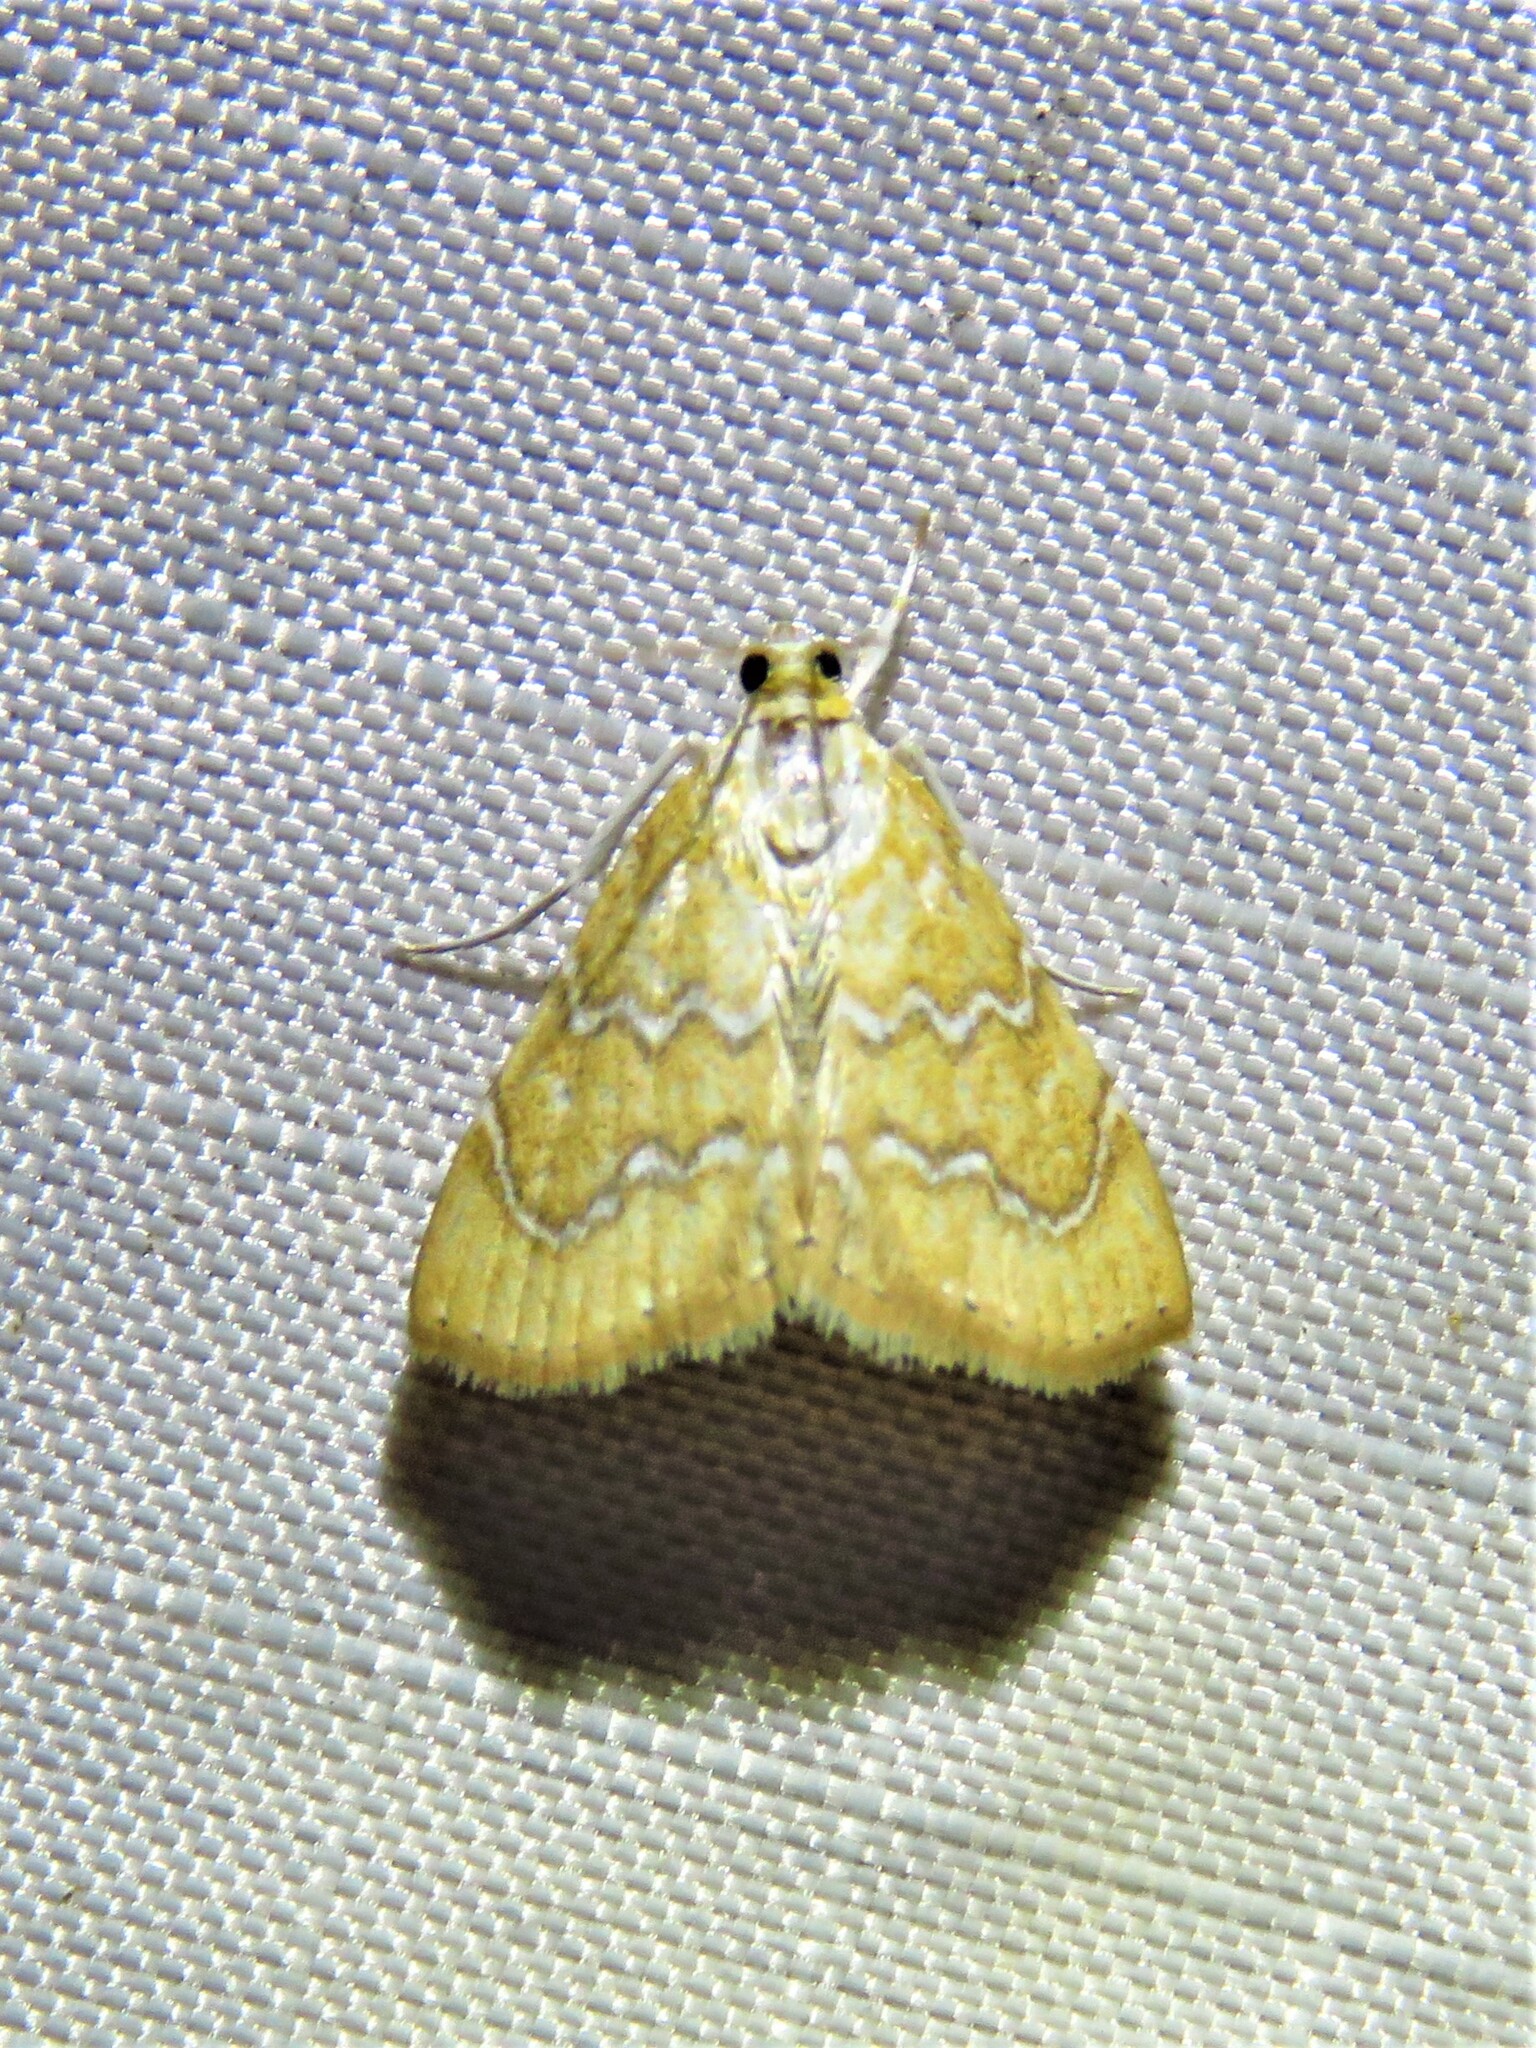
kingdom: Animalia
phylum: Arthropoda
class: Insecta
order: Lepidoptera
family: Crambidae
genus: Glaphyria
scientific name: Glaphyria sesquistrialis
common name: White-roped glaphyria
